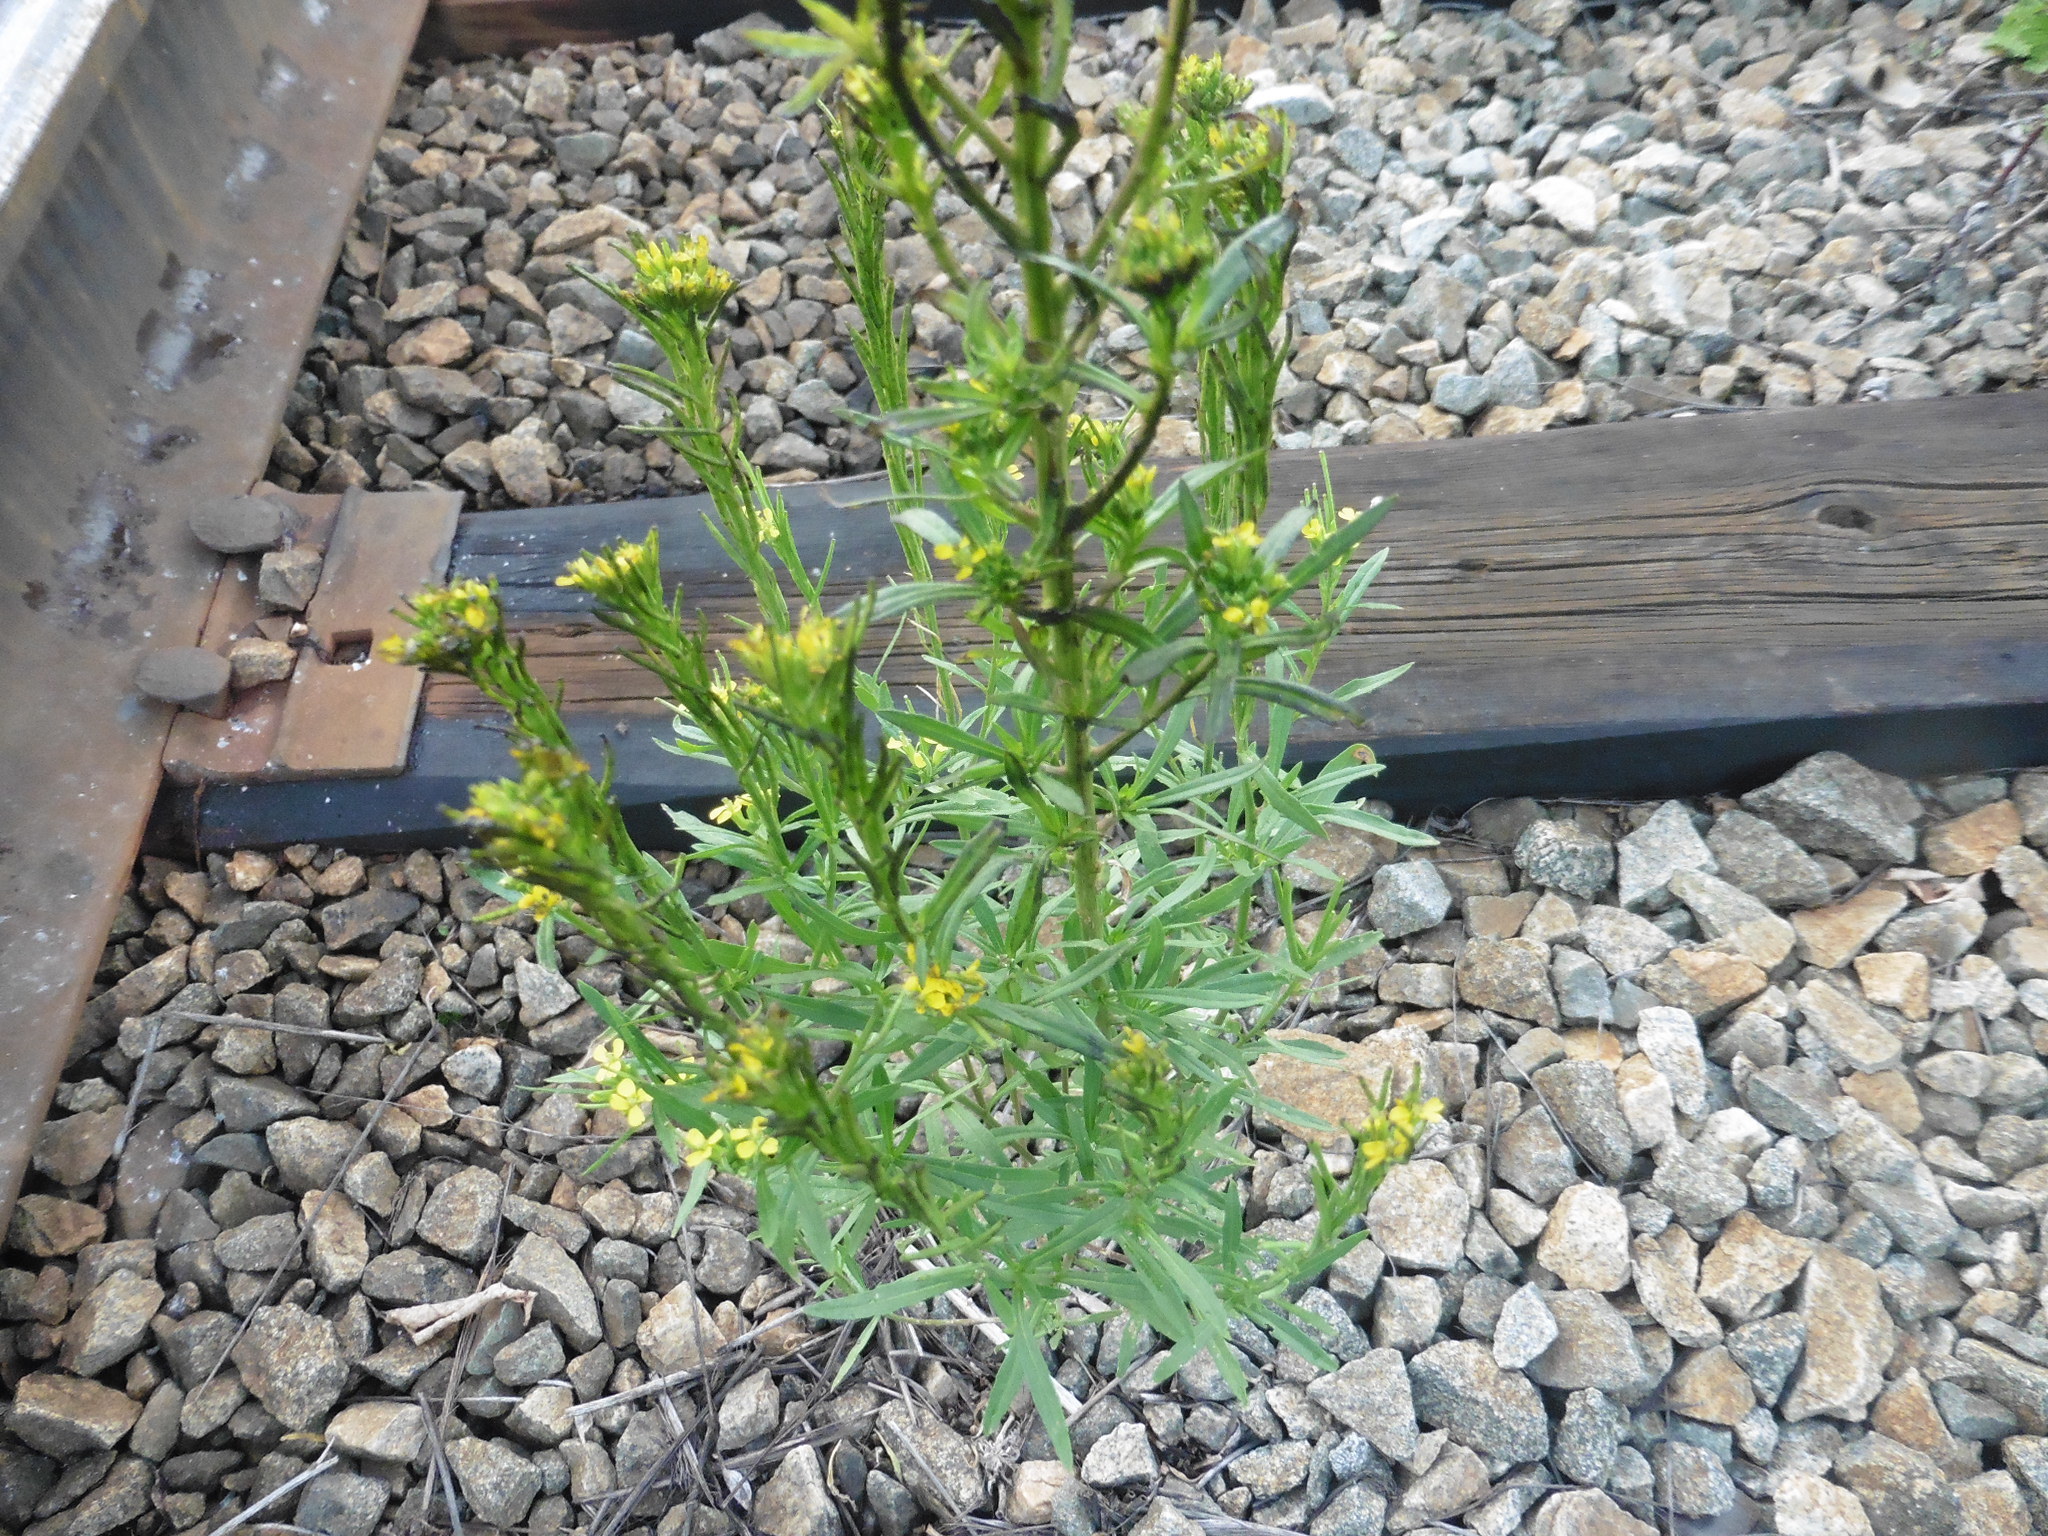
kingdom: Plantae
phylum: Tracheophyta
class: Magnoliopsida
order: Brassicales
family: Brassicaceae
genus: Erysimum
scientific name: Erysimum cheiranthoides
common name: Treacle mustard
